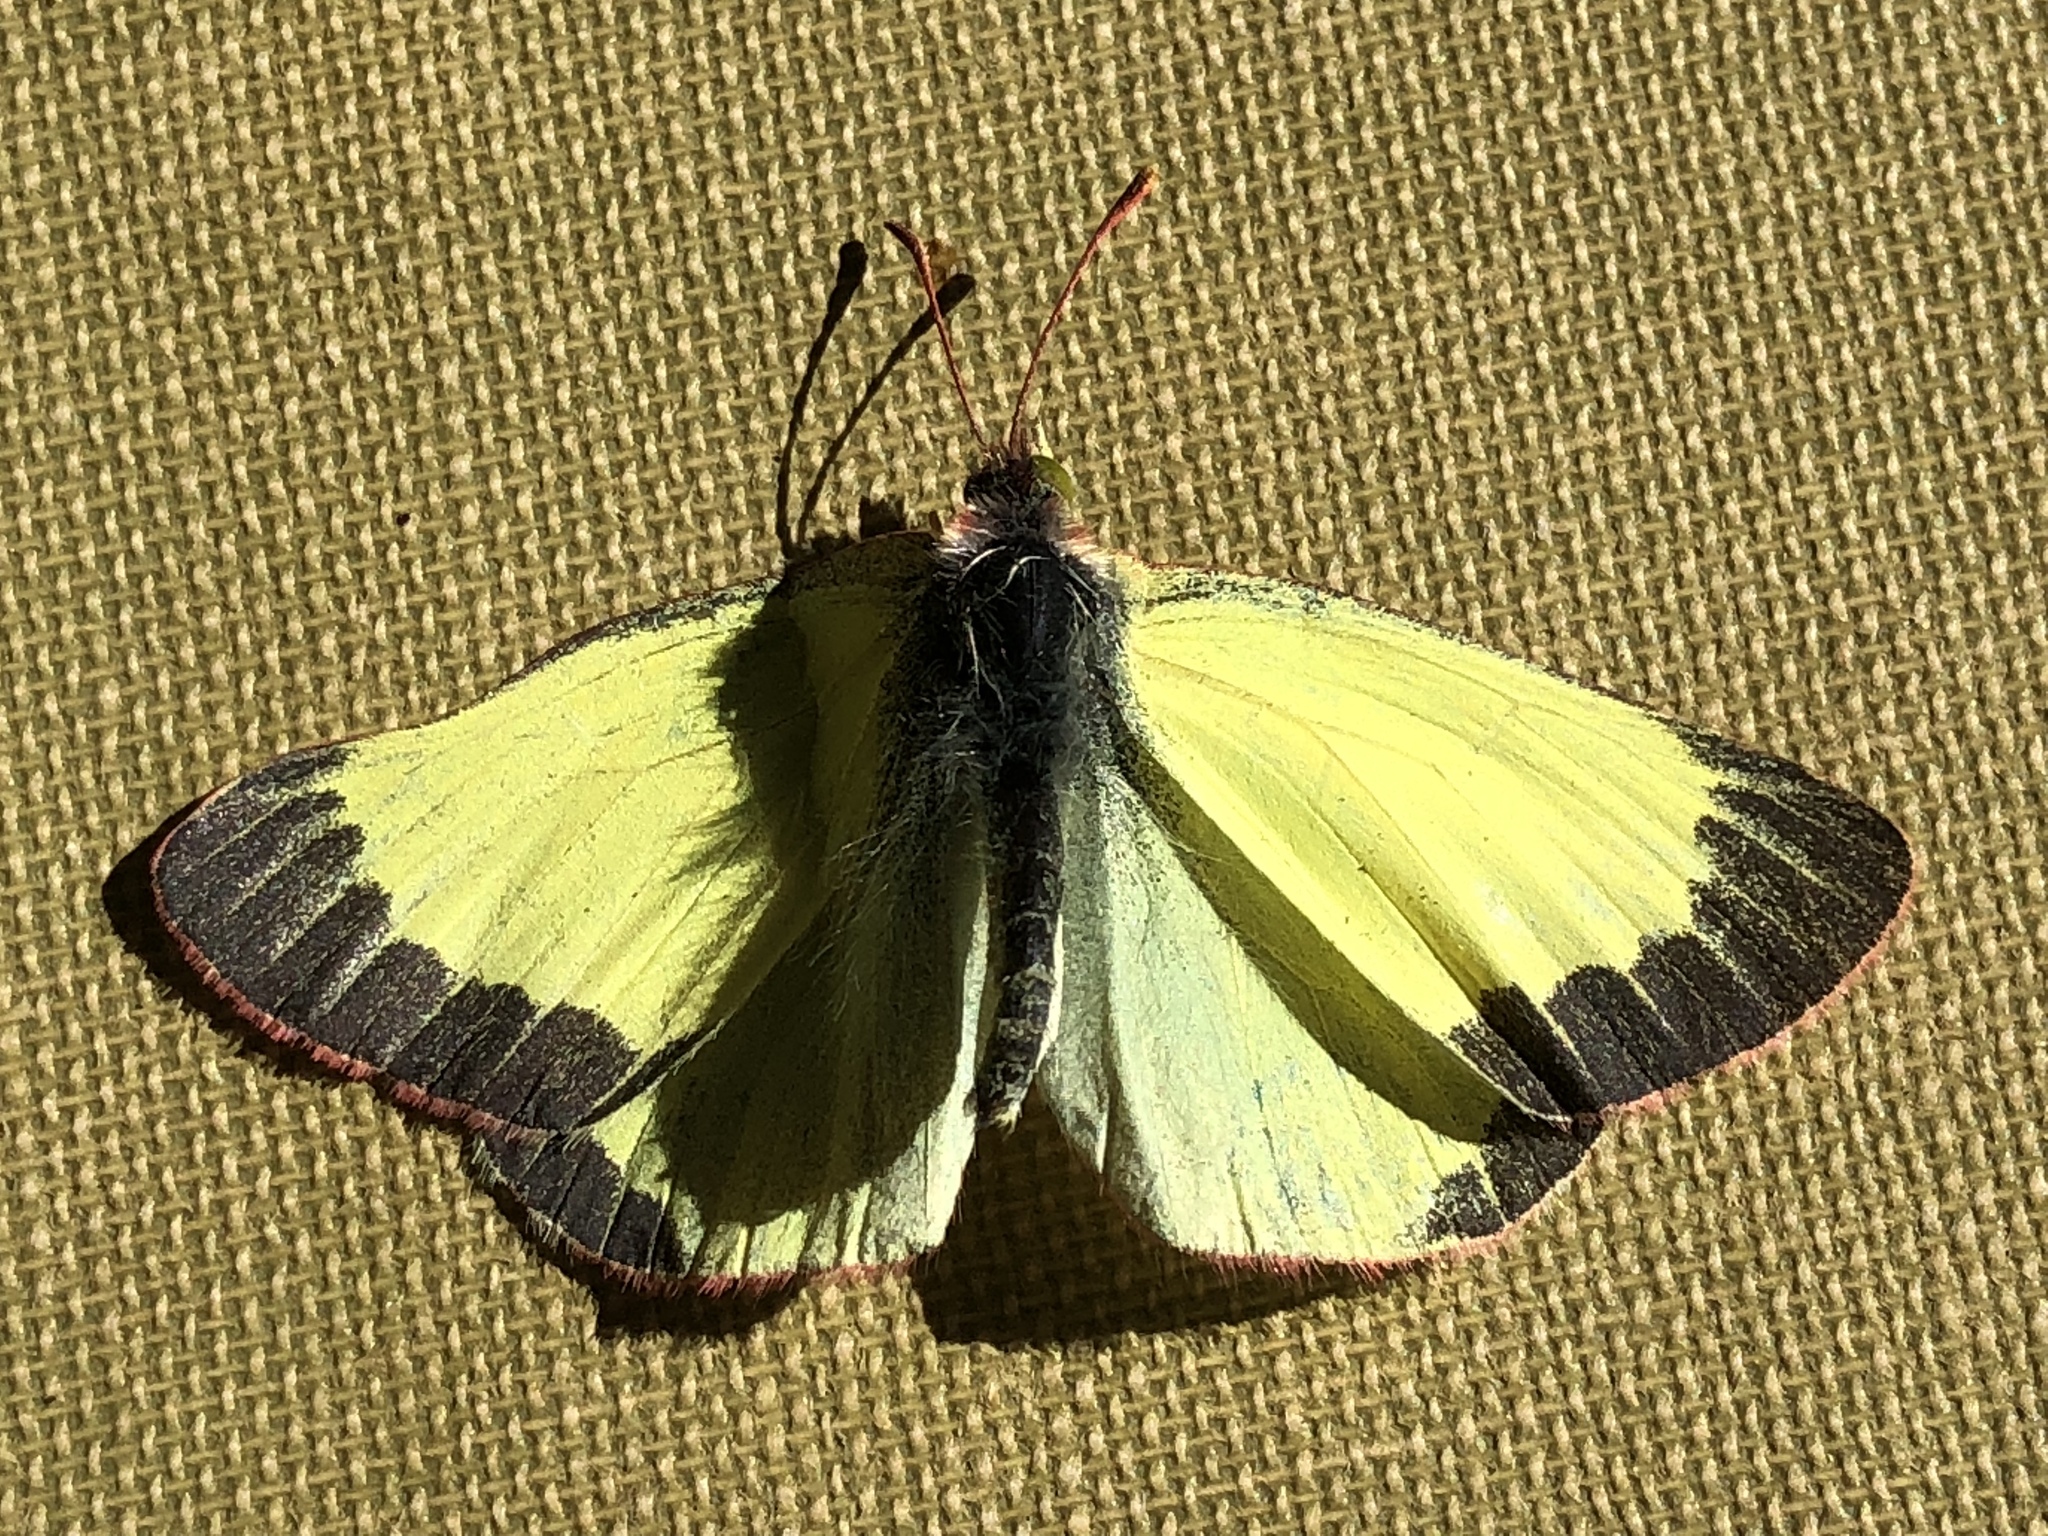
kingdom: Animalia
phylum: Arthropoda
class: Insecta
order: Lepidoptera
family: Pieridae
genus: Colias
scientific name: Colias palaeno
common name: Moorland clouded yellow
